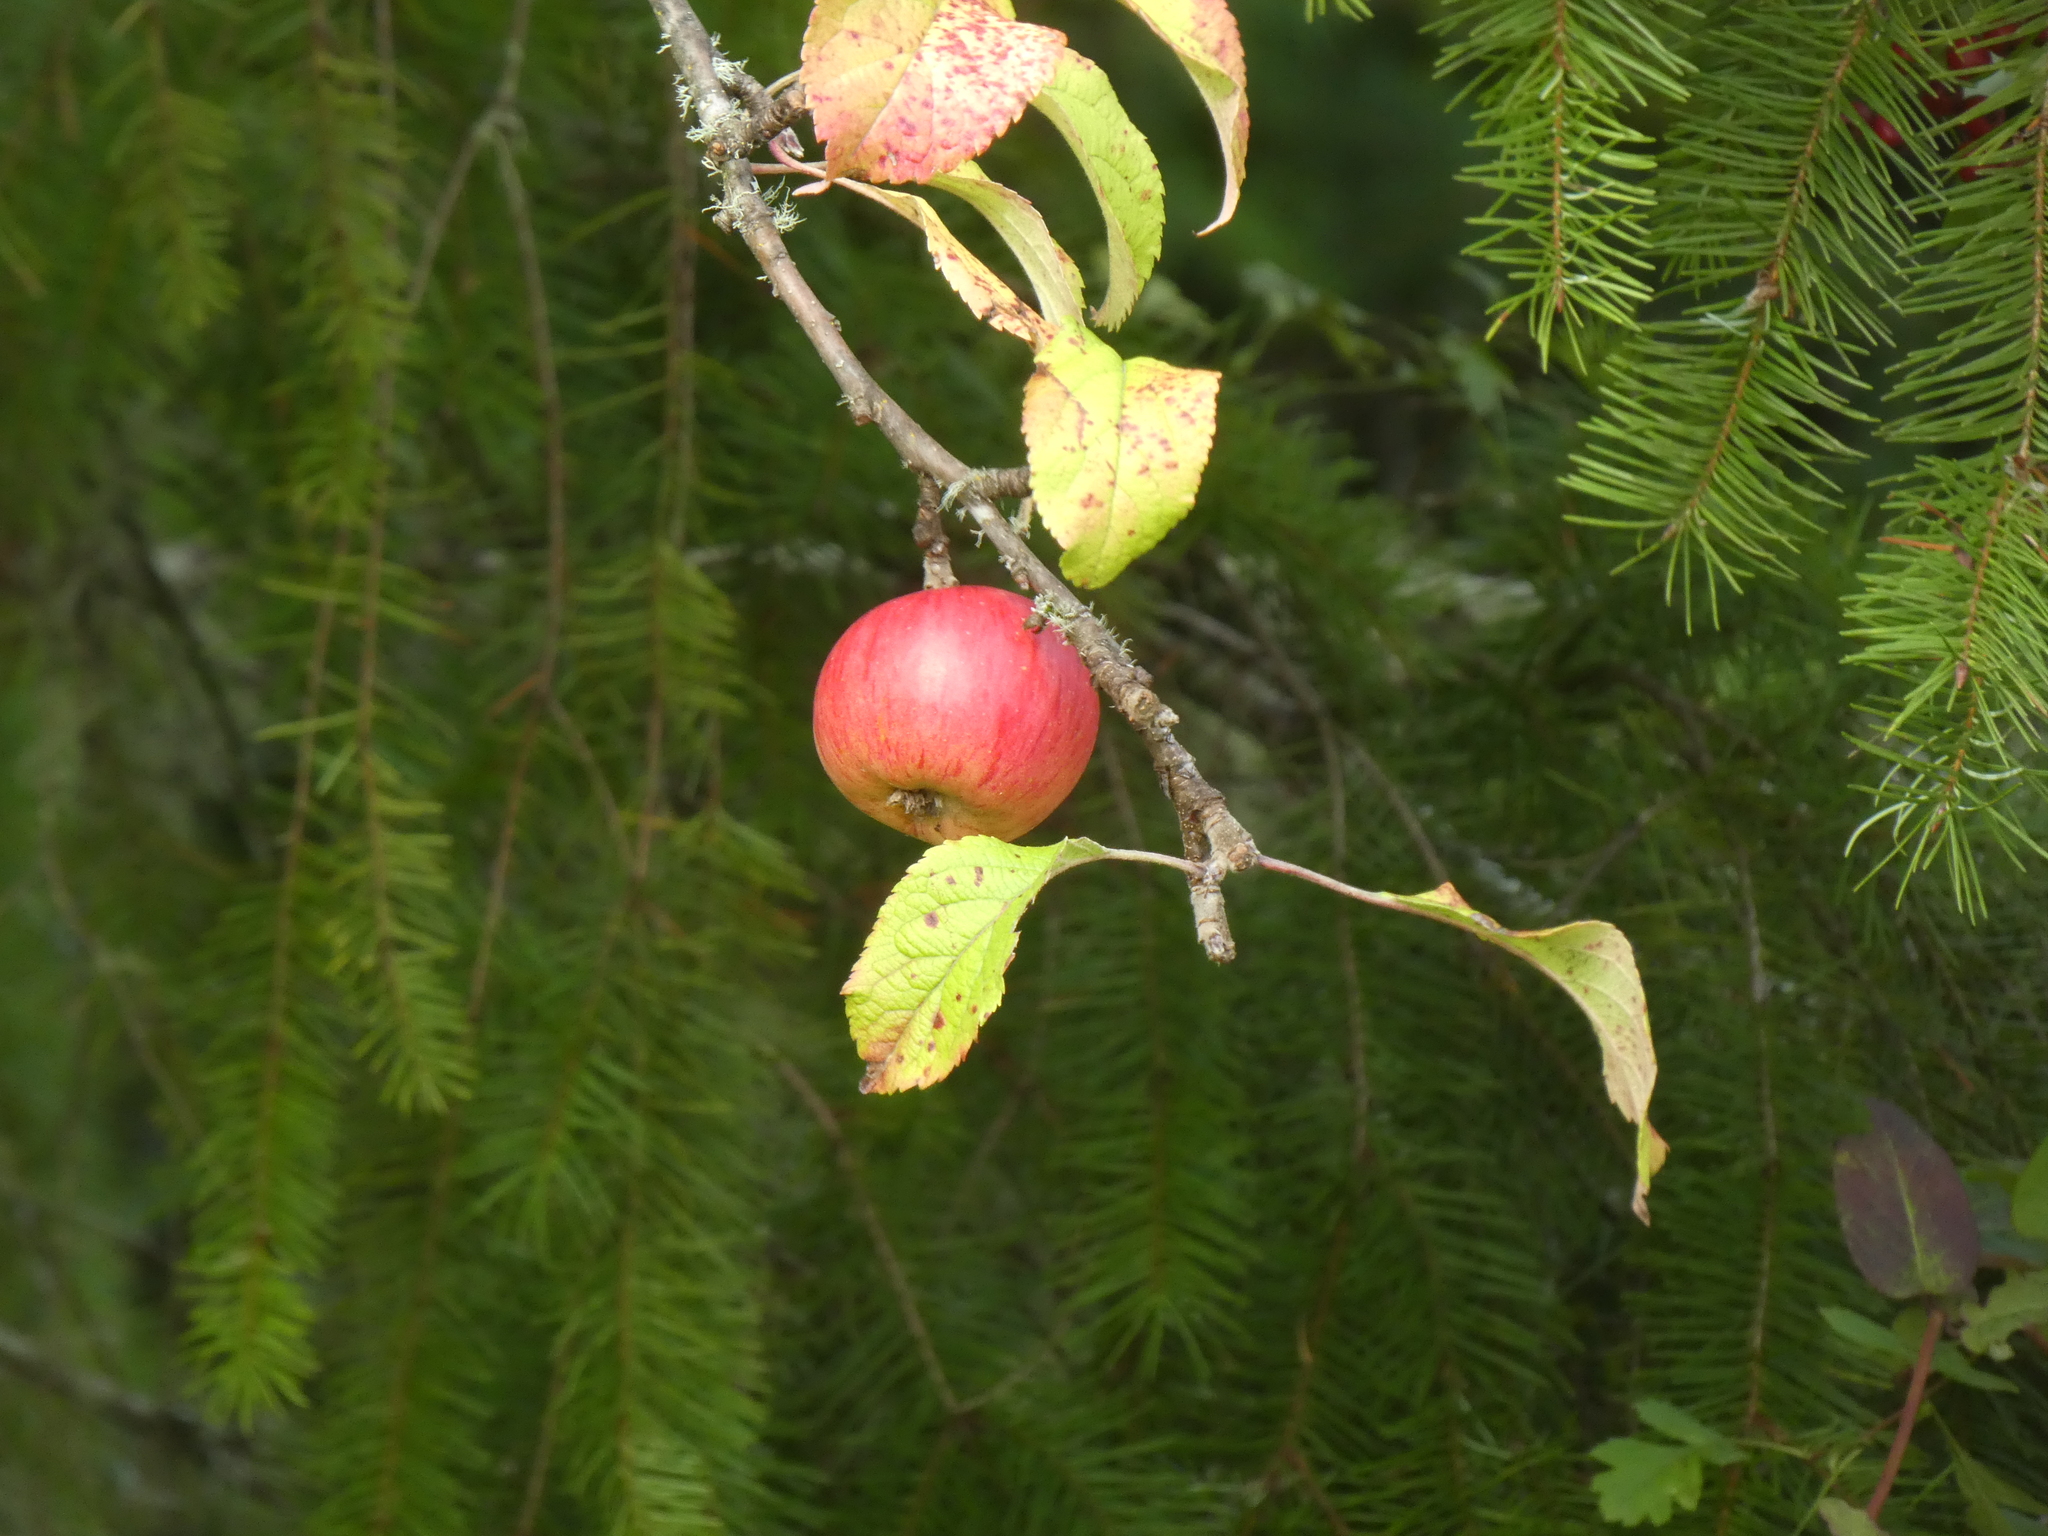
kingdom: Plantae
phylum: Tracheophyta
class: Magnoliopsida
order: Rosales
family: Rosaceae
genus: Malus
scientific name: Malus domestica
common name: Apple
